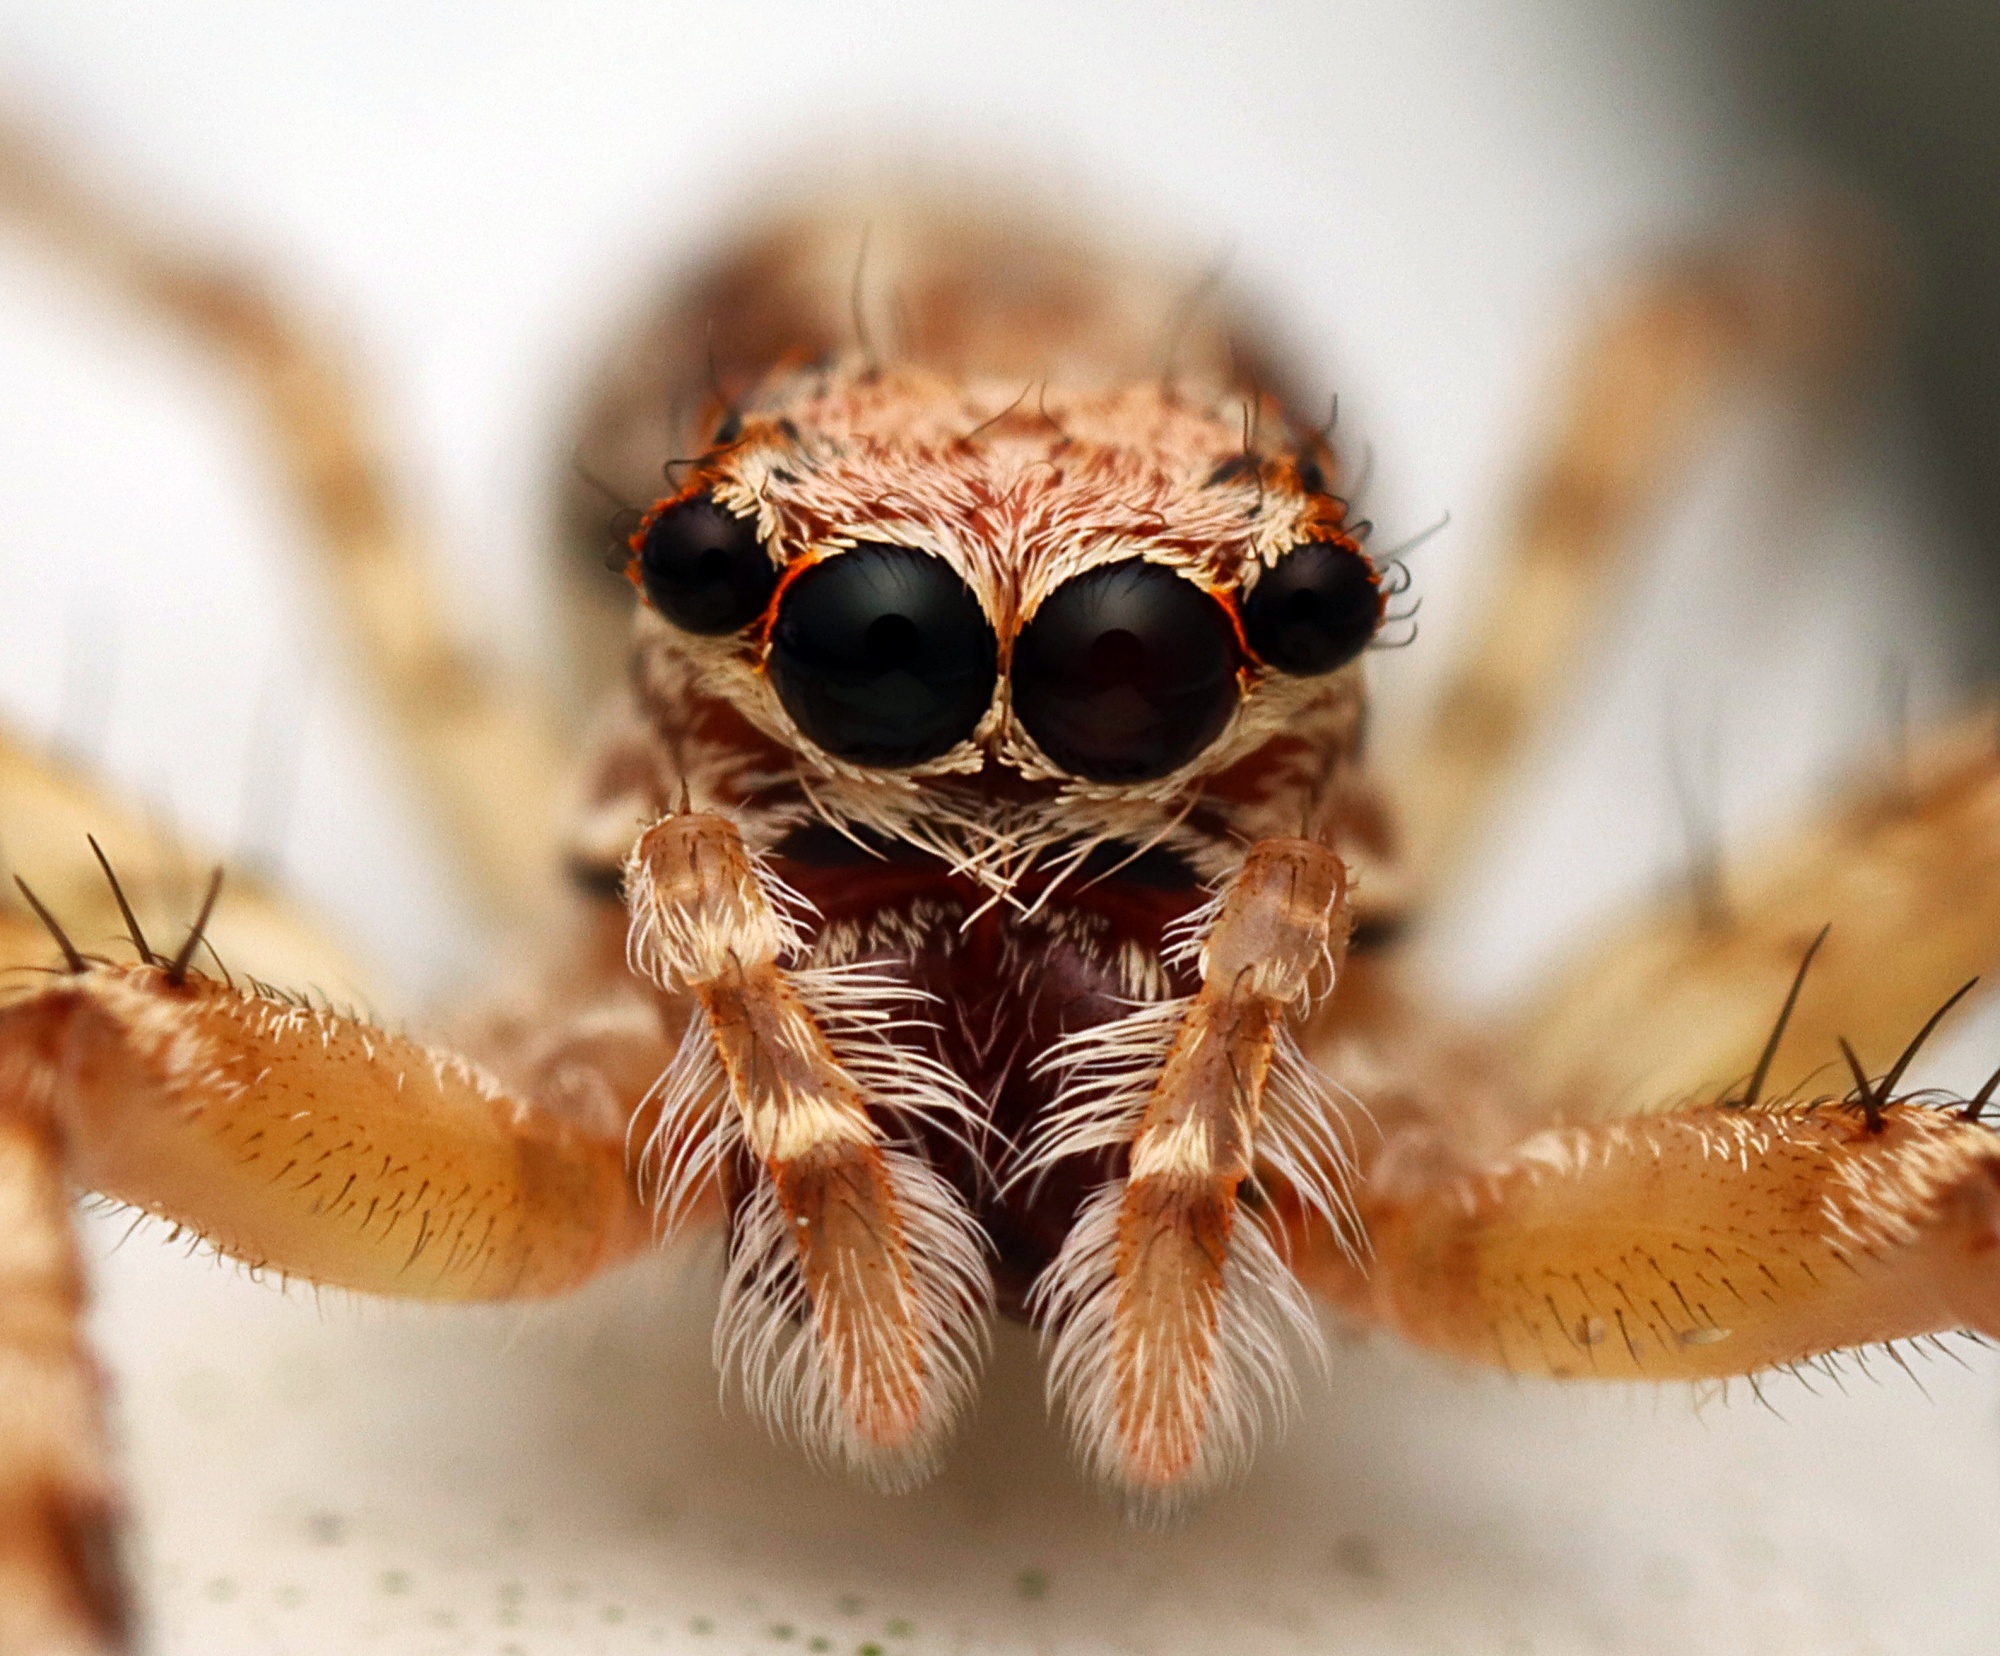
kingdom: Animalia
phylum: Arthropoda
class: Arachnida
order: Araneae
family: Salticidae
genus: Helpis
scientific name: Helpis minitabunda
